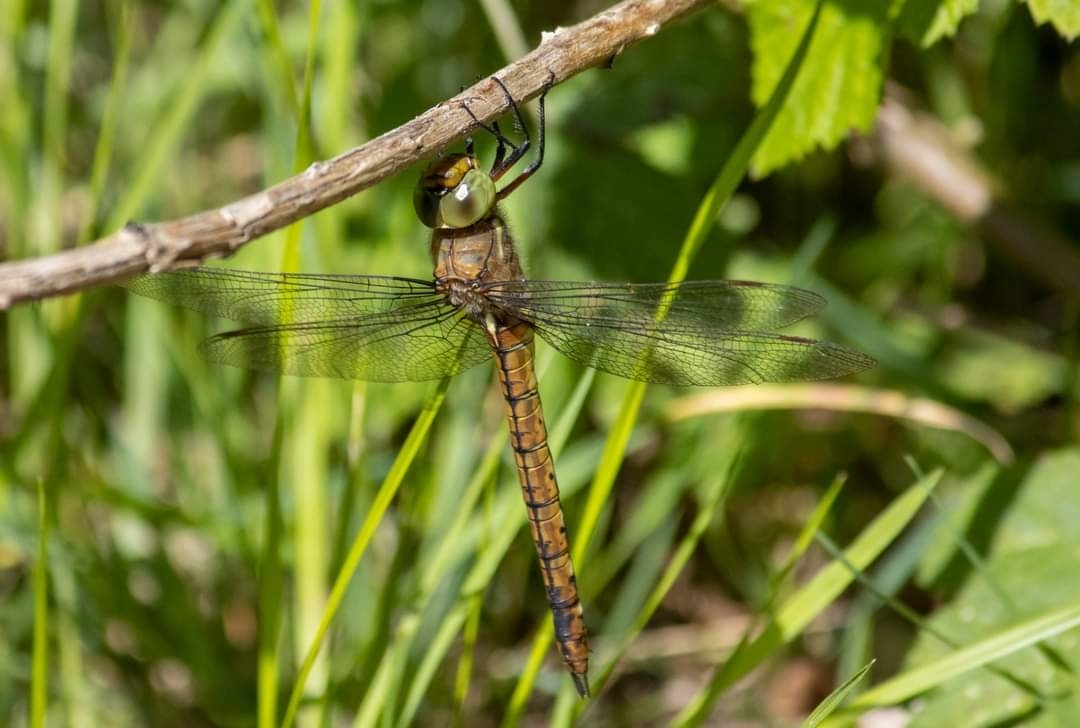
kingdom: Animalia
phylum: Arthropoda
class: Insecta
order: Odonata
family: Aeshnidae
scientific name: Aeshnidae
